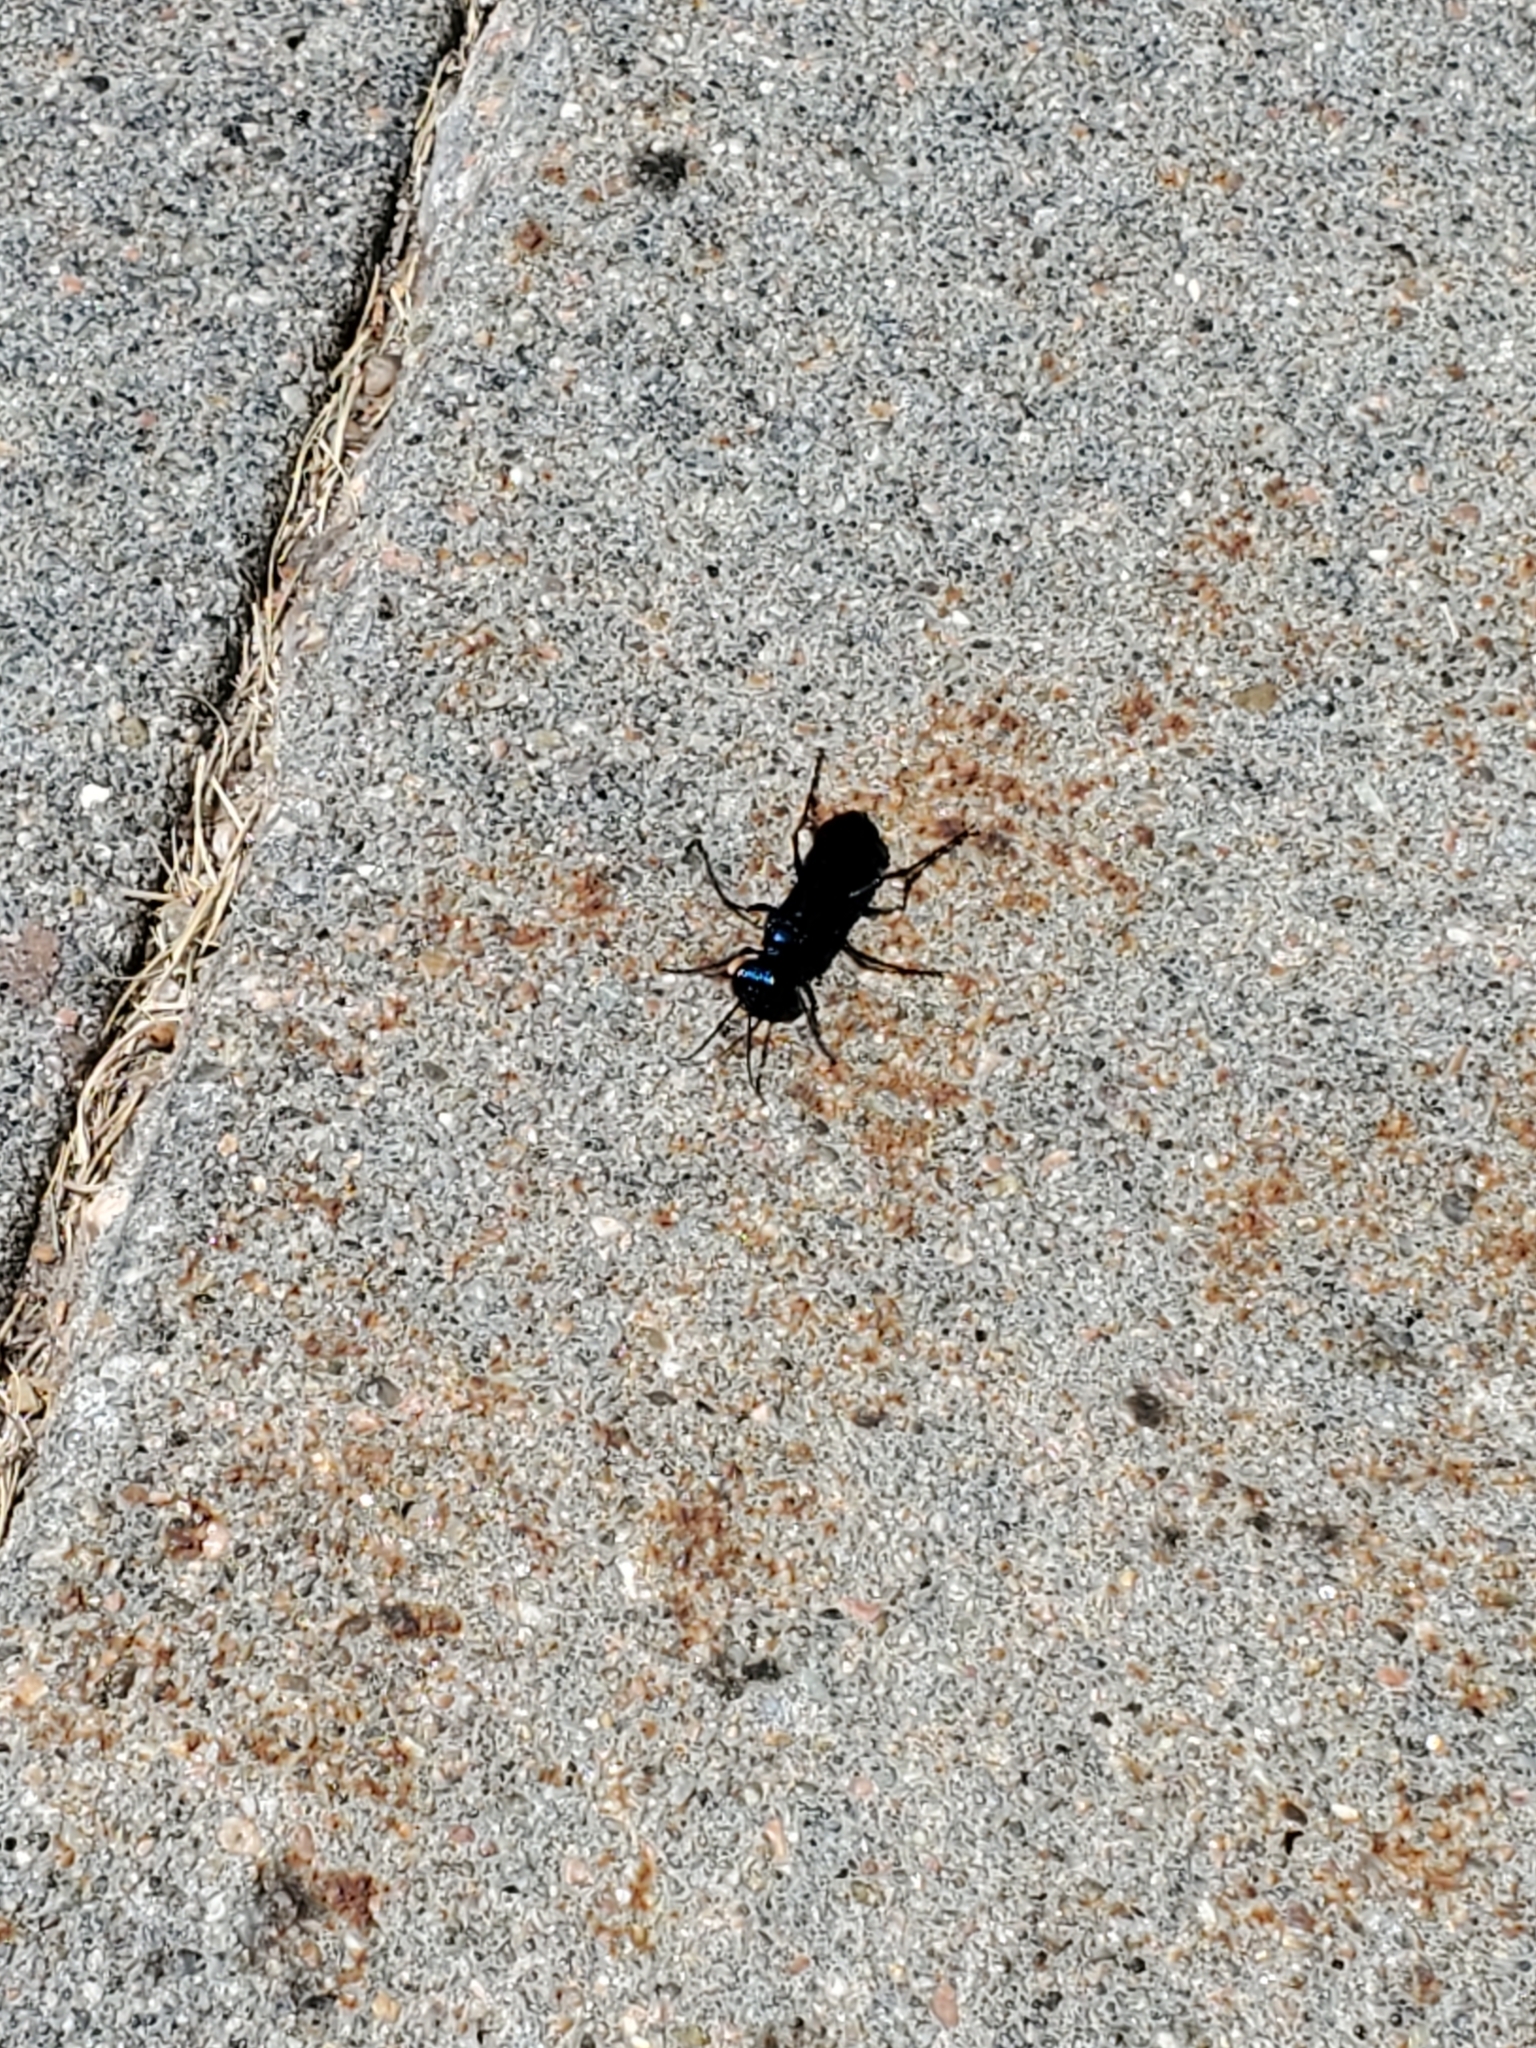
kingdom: Animalia
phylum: Arthropoda
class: Insecta
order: Hymenoptera
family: Sphecidae
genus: Chlorion
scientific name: Chlorion aerarium
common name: Steel-blue cricket hunter
